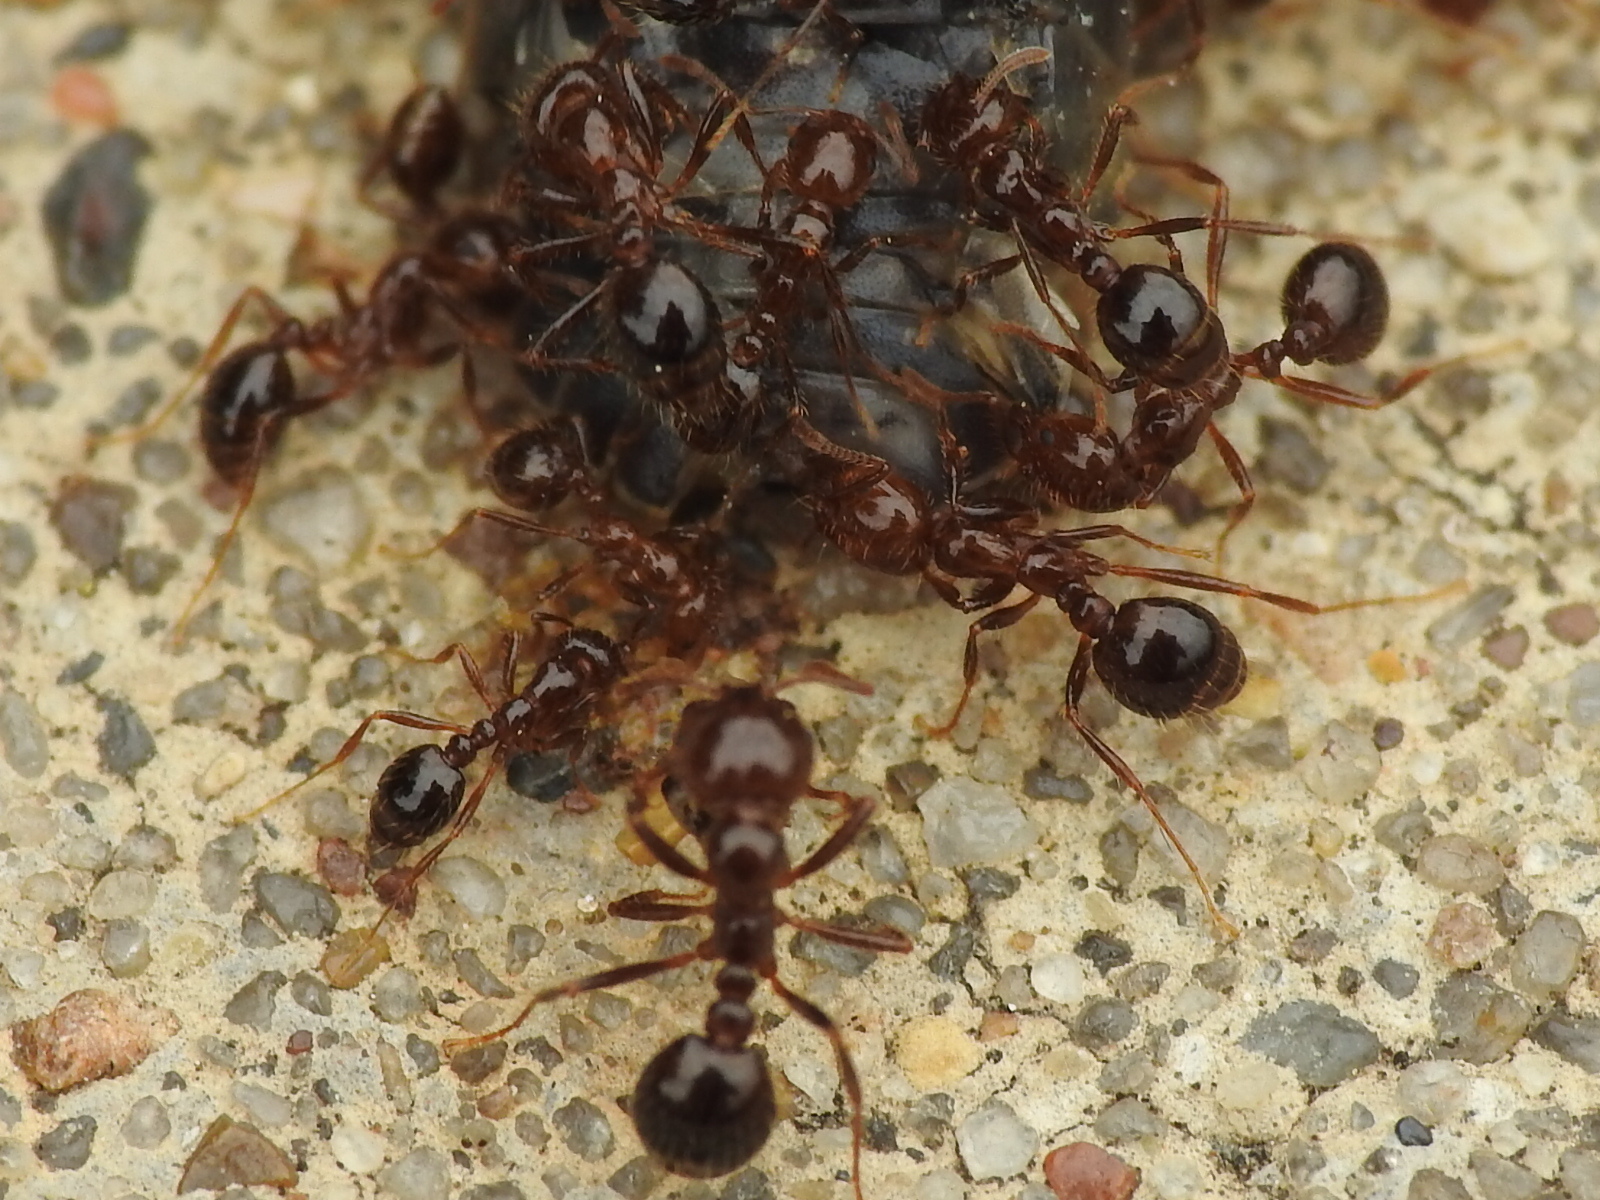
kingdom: Animalia
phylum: Arthropoda
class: Insecta
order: Hymenoptera
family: Formicidae
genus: Solenopsis
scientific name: Solenopsis invicta
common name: Red imported fire ant
